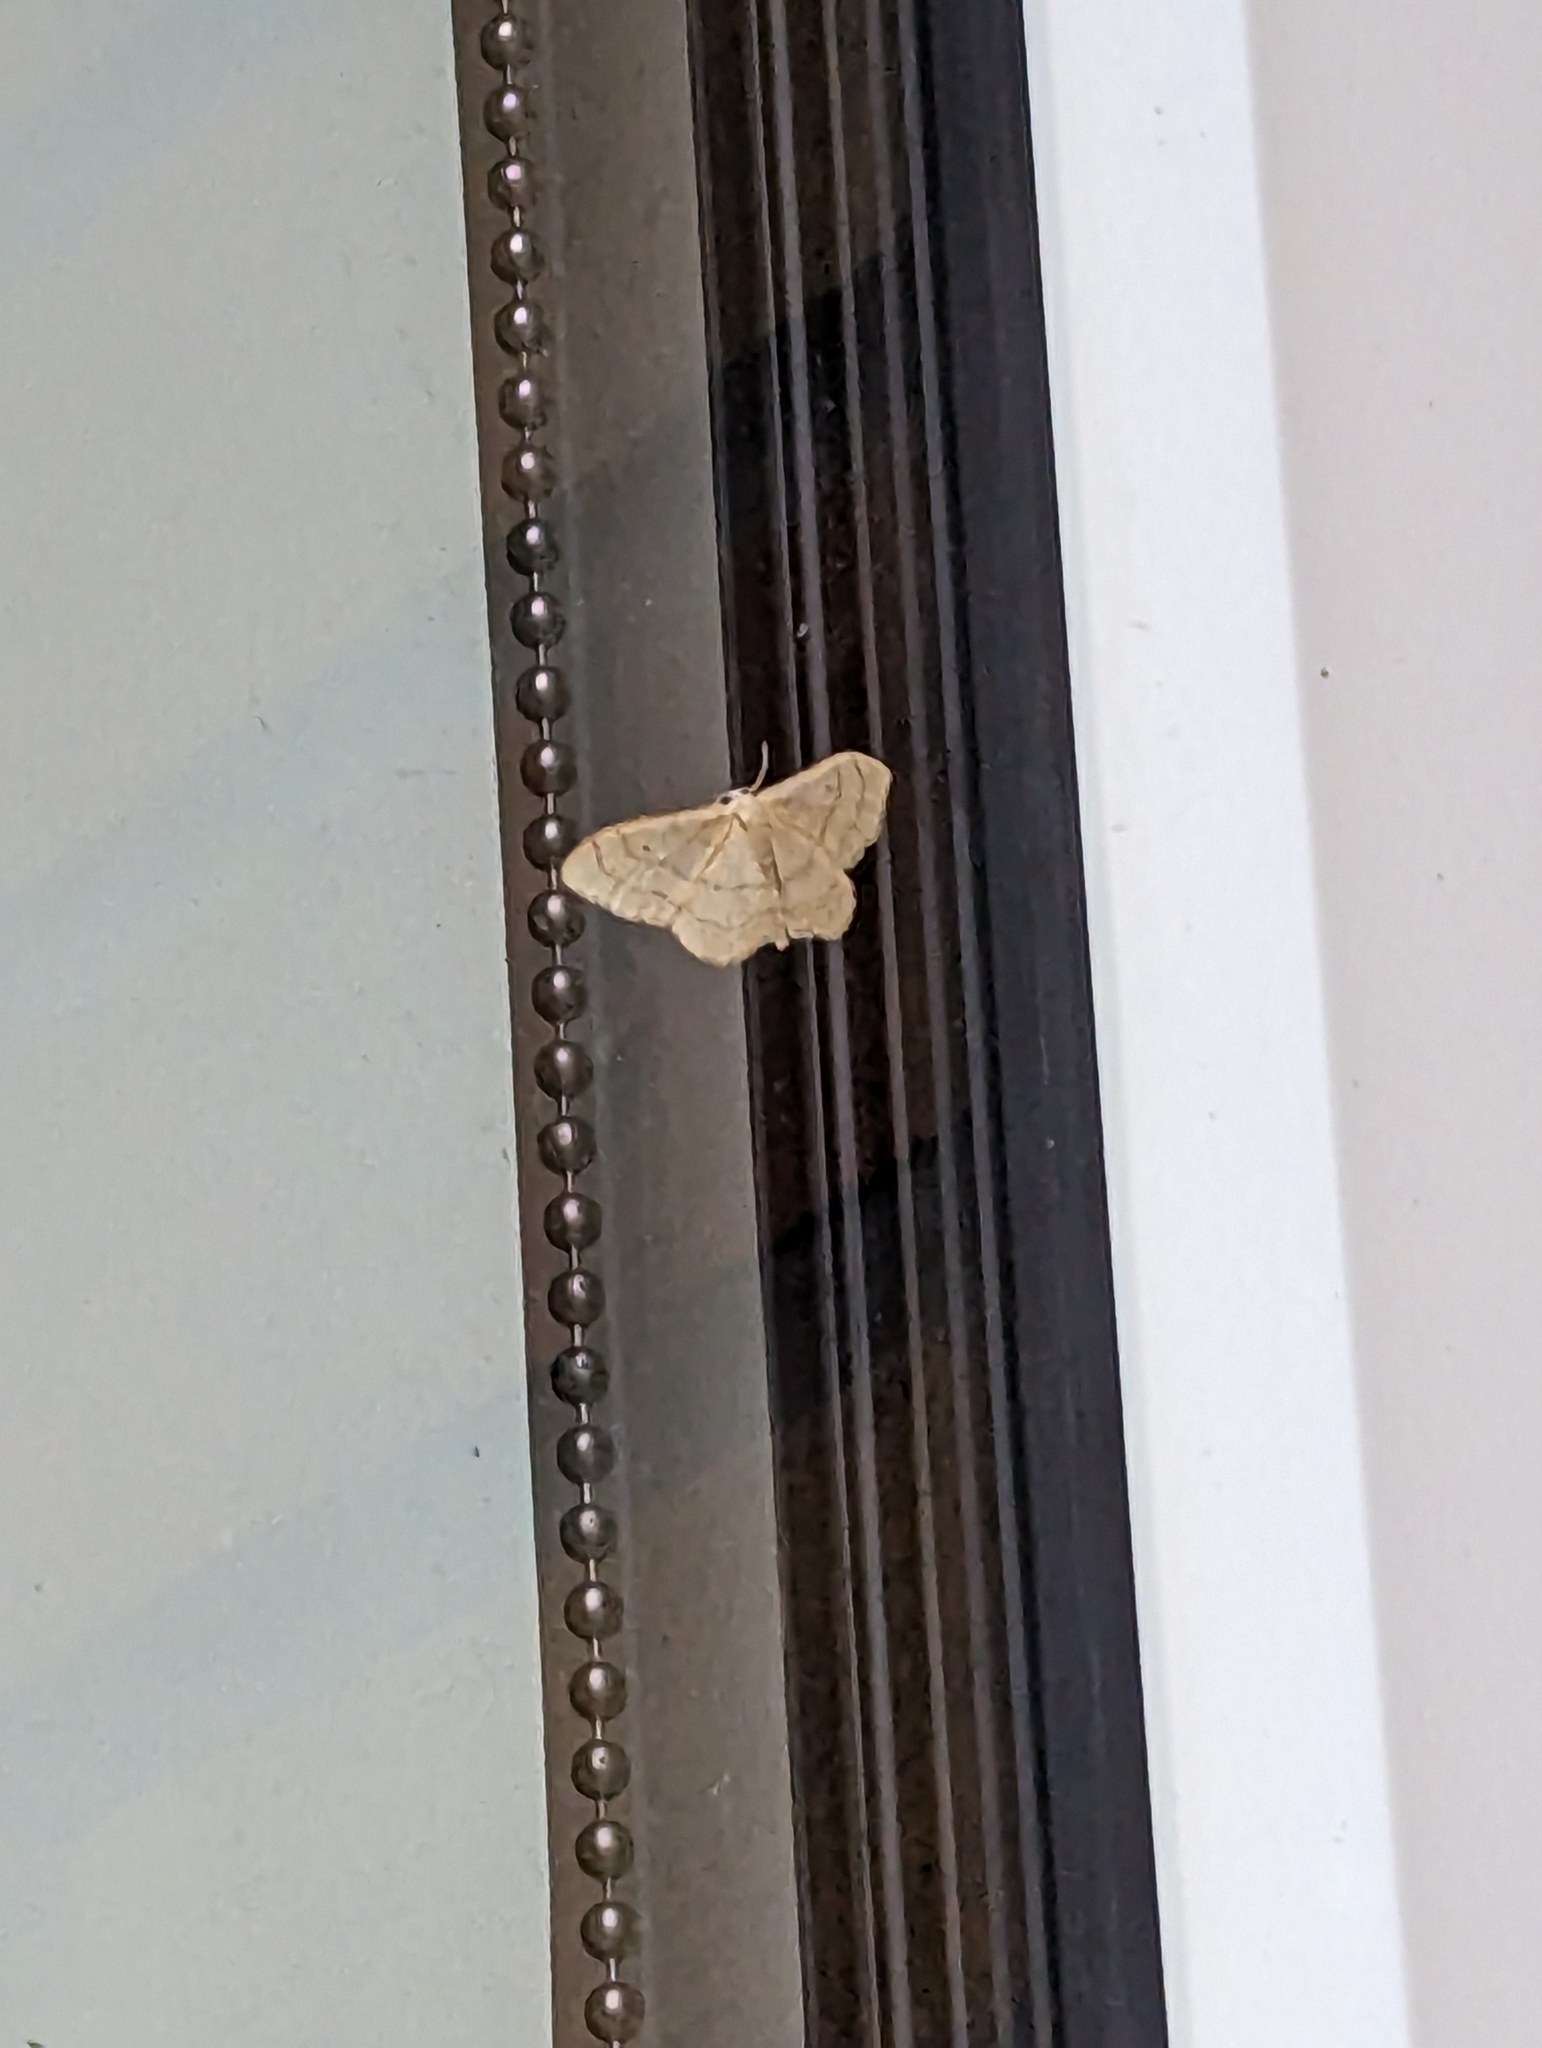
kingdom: Animalia
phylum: Arthropoda
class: Insecta
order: Lepidoptera
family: Geometridae
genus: Idaea
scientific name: Idaea aversata
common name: Riband wave
